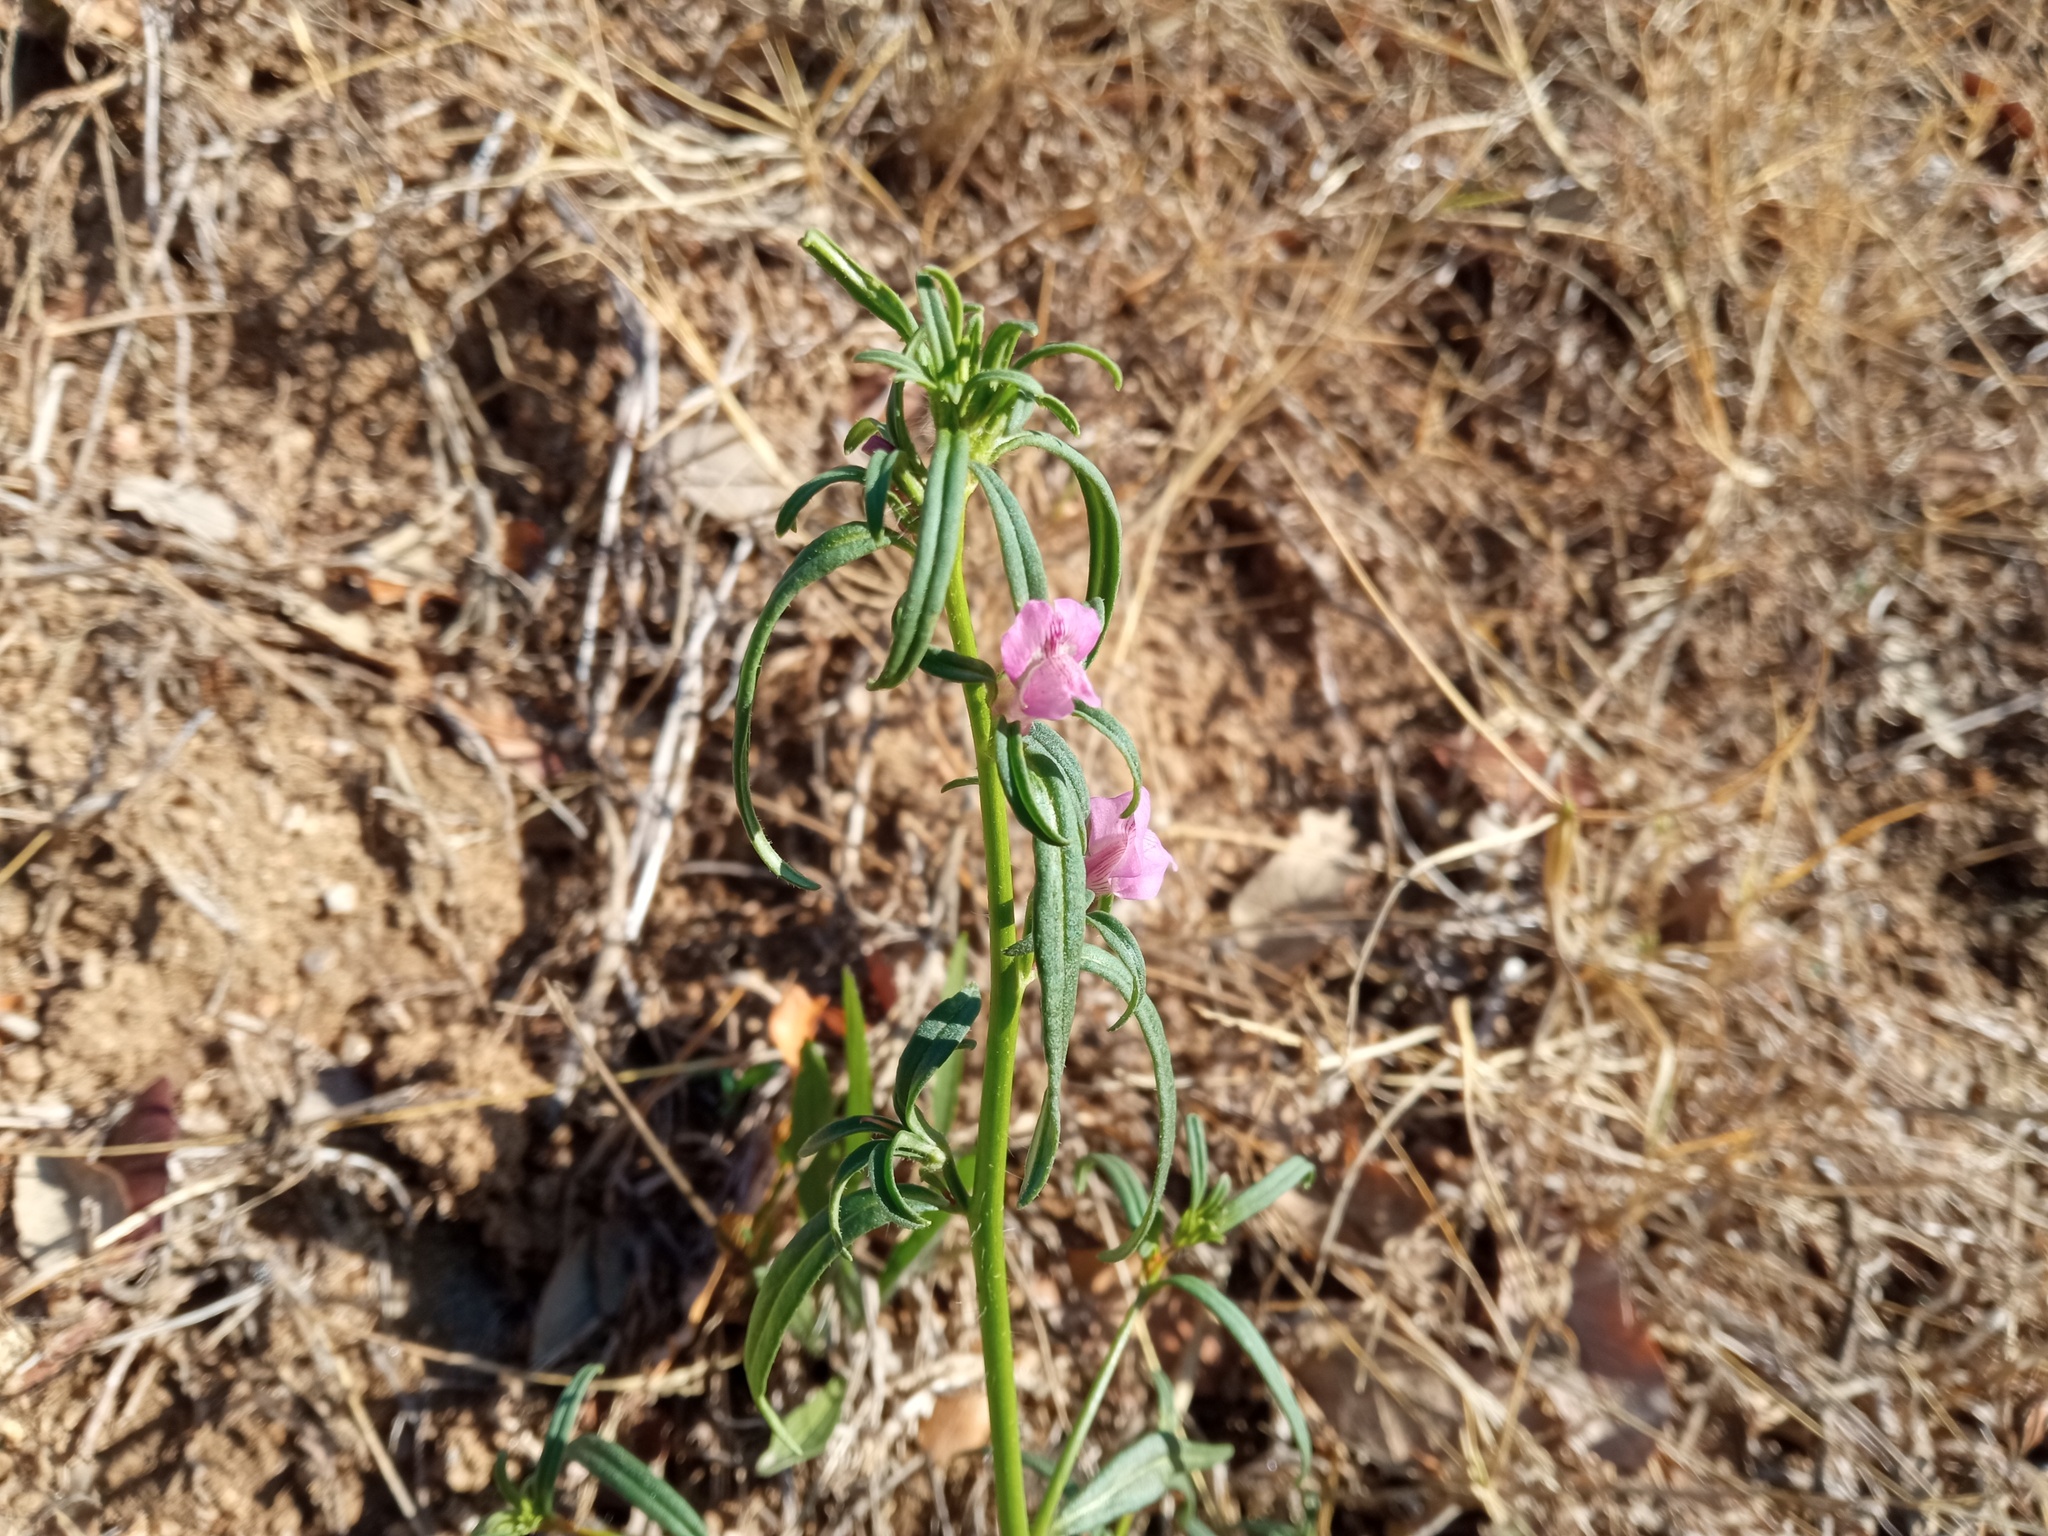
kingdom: Plantae
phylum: Tracheophyta
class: Magnoliopsida
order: Lamiales
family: Plantaginaceae
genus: Misopates
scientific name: Misopates orontium
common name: Weasel's-snout
